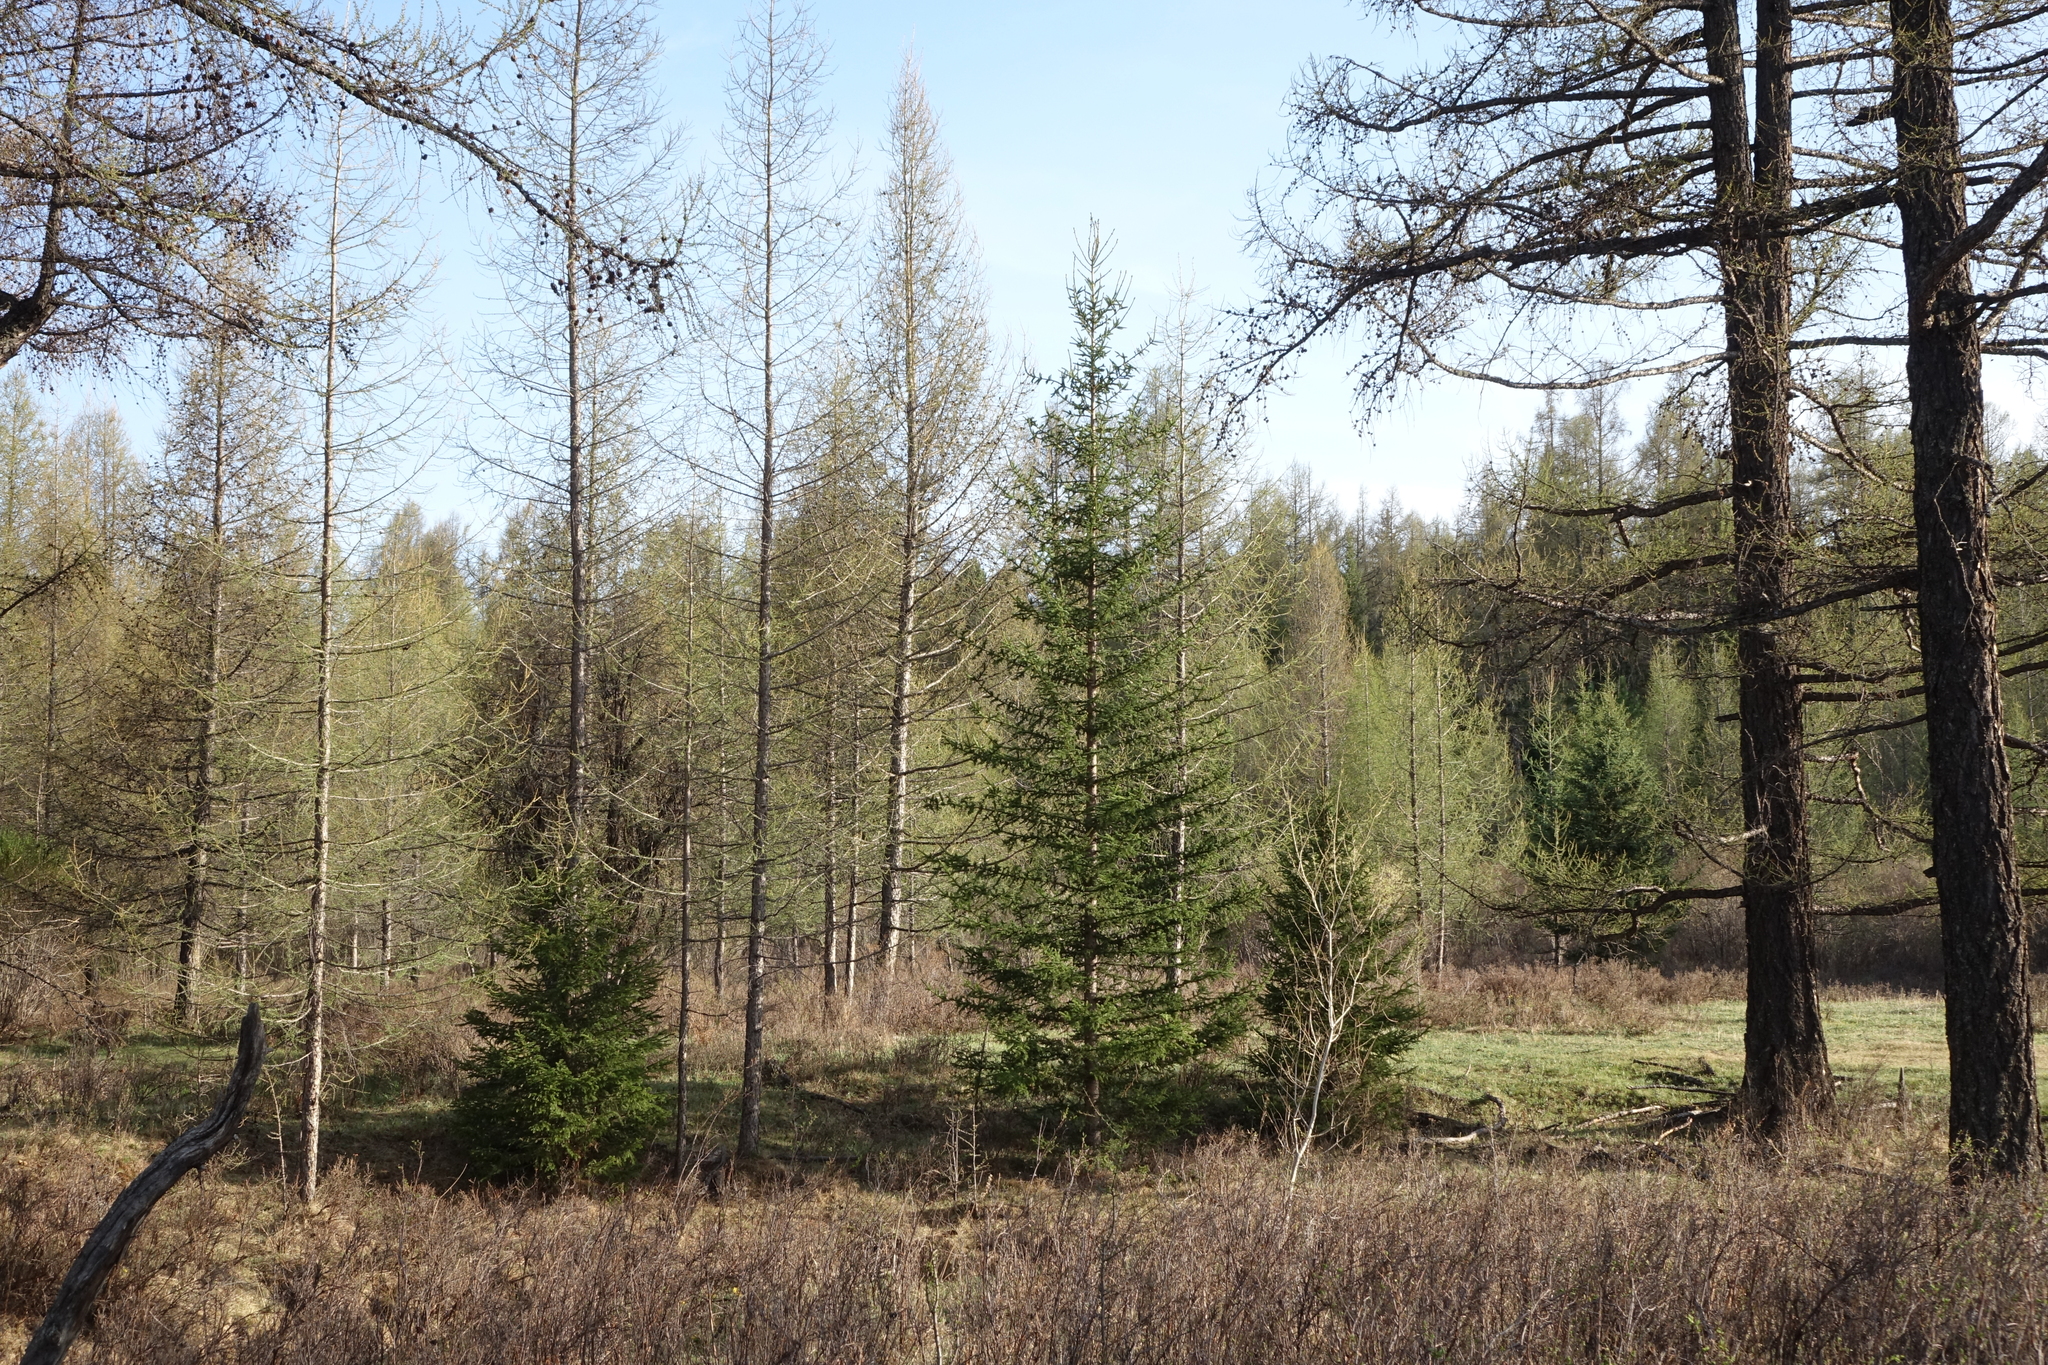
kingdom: Plantae
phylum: Tracheophyta
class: Pinopsida
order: Pinales
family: Pinaceae
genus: Picea
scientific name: Picea obovata
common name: Siberian spruce
